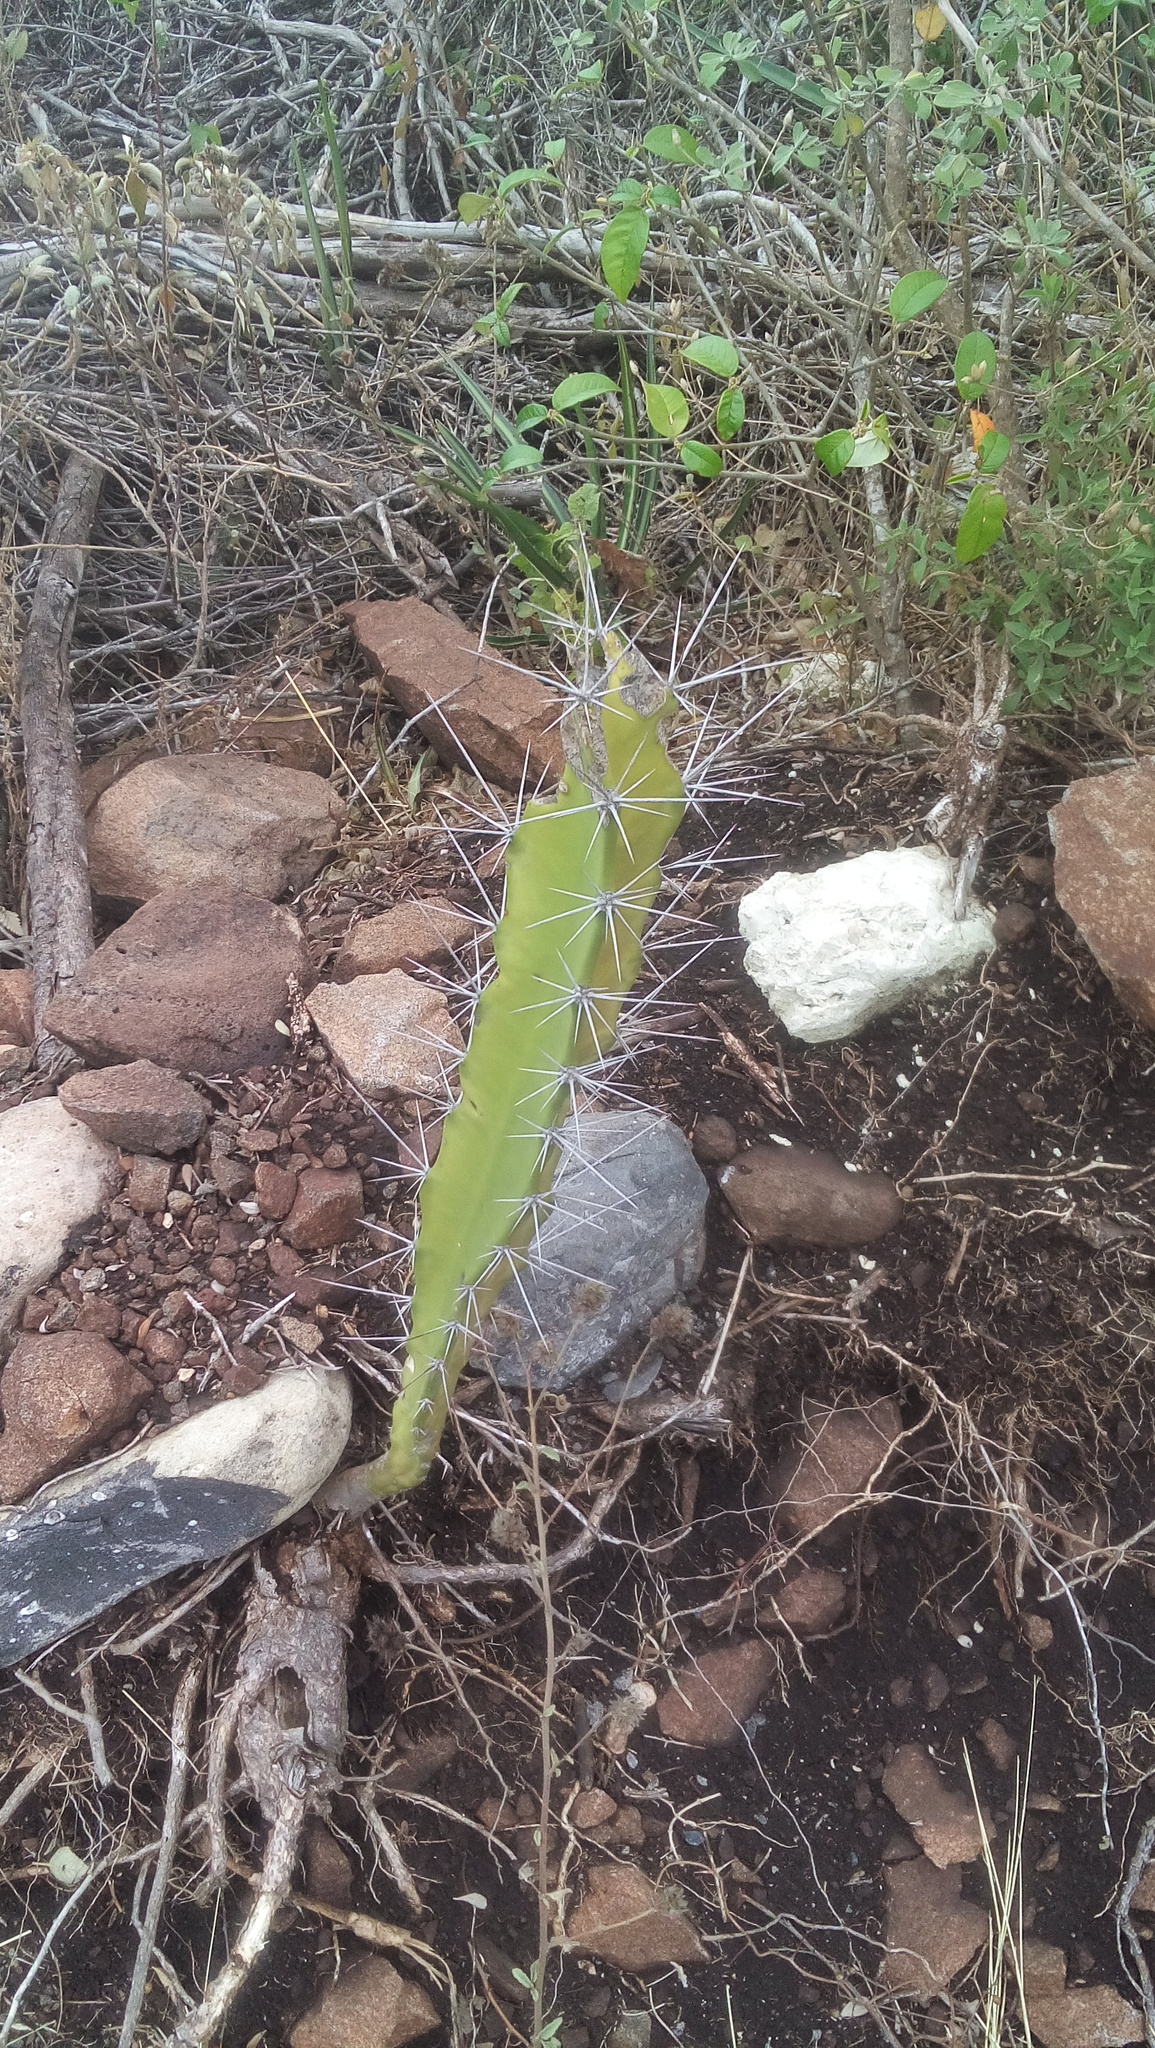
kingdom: Plantae
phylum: Tracheophyta
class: Magnoliopsida
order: Caryophyllales
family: Cactaceae
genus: Acanthocereus
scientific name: Acanthocereus tetragonus
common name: Triangle cactus
